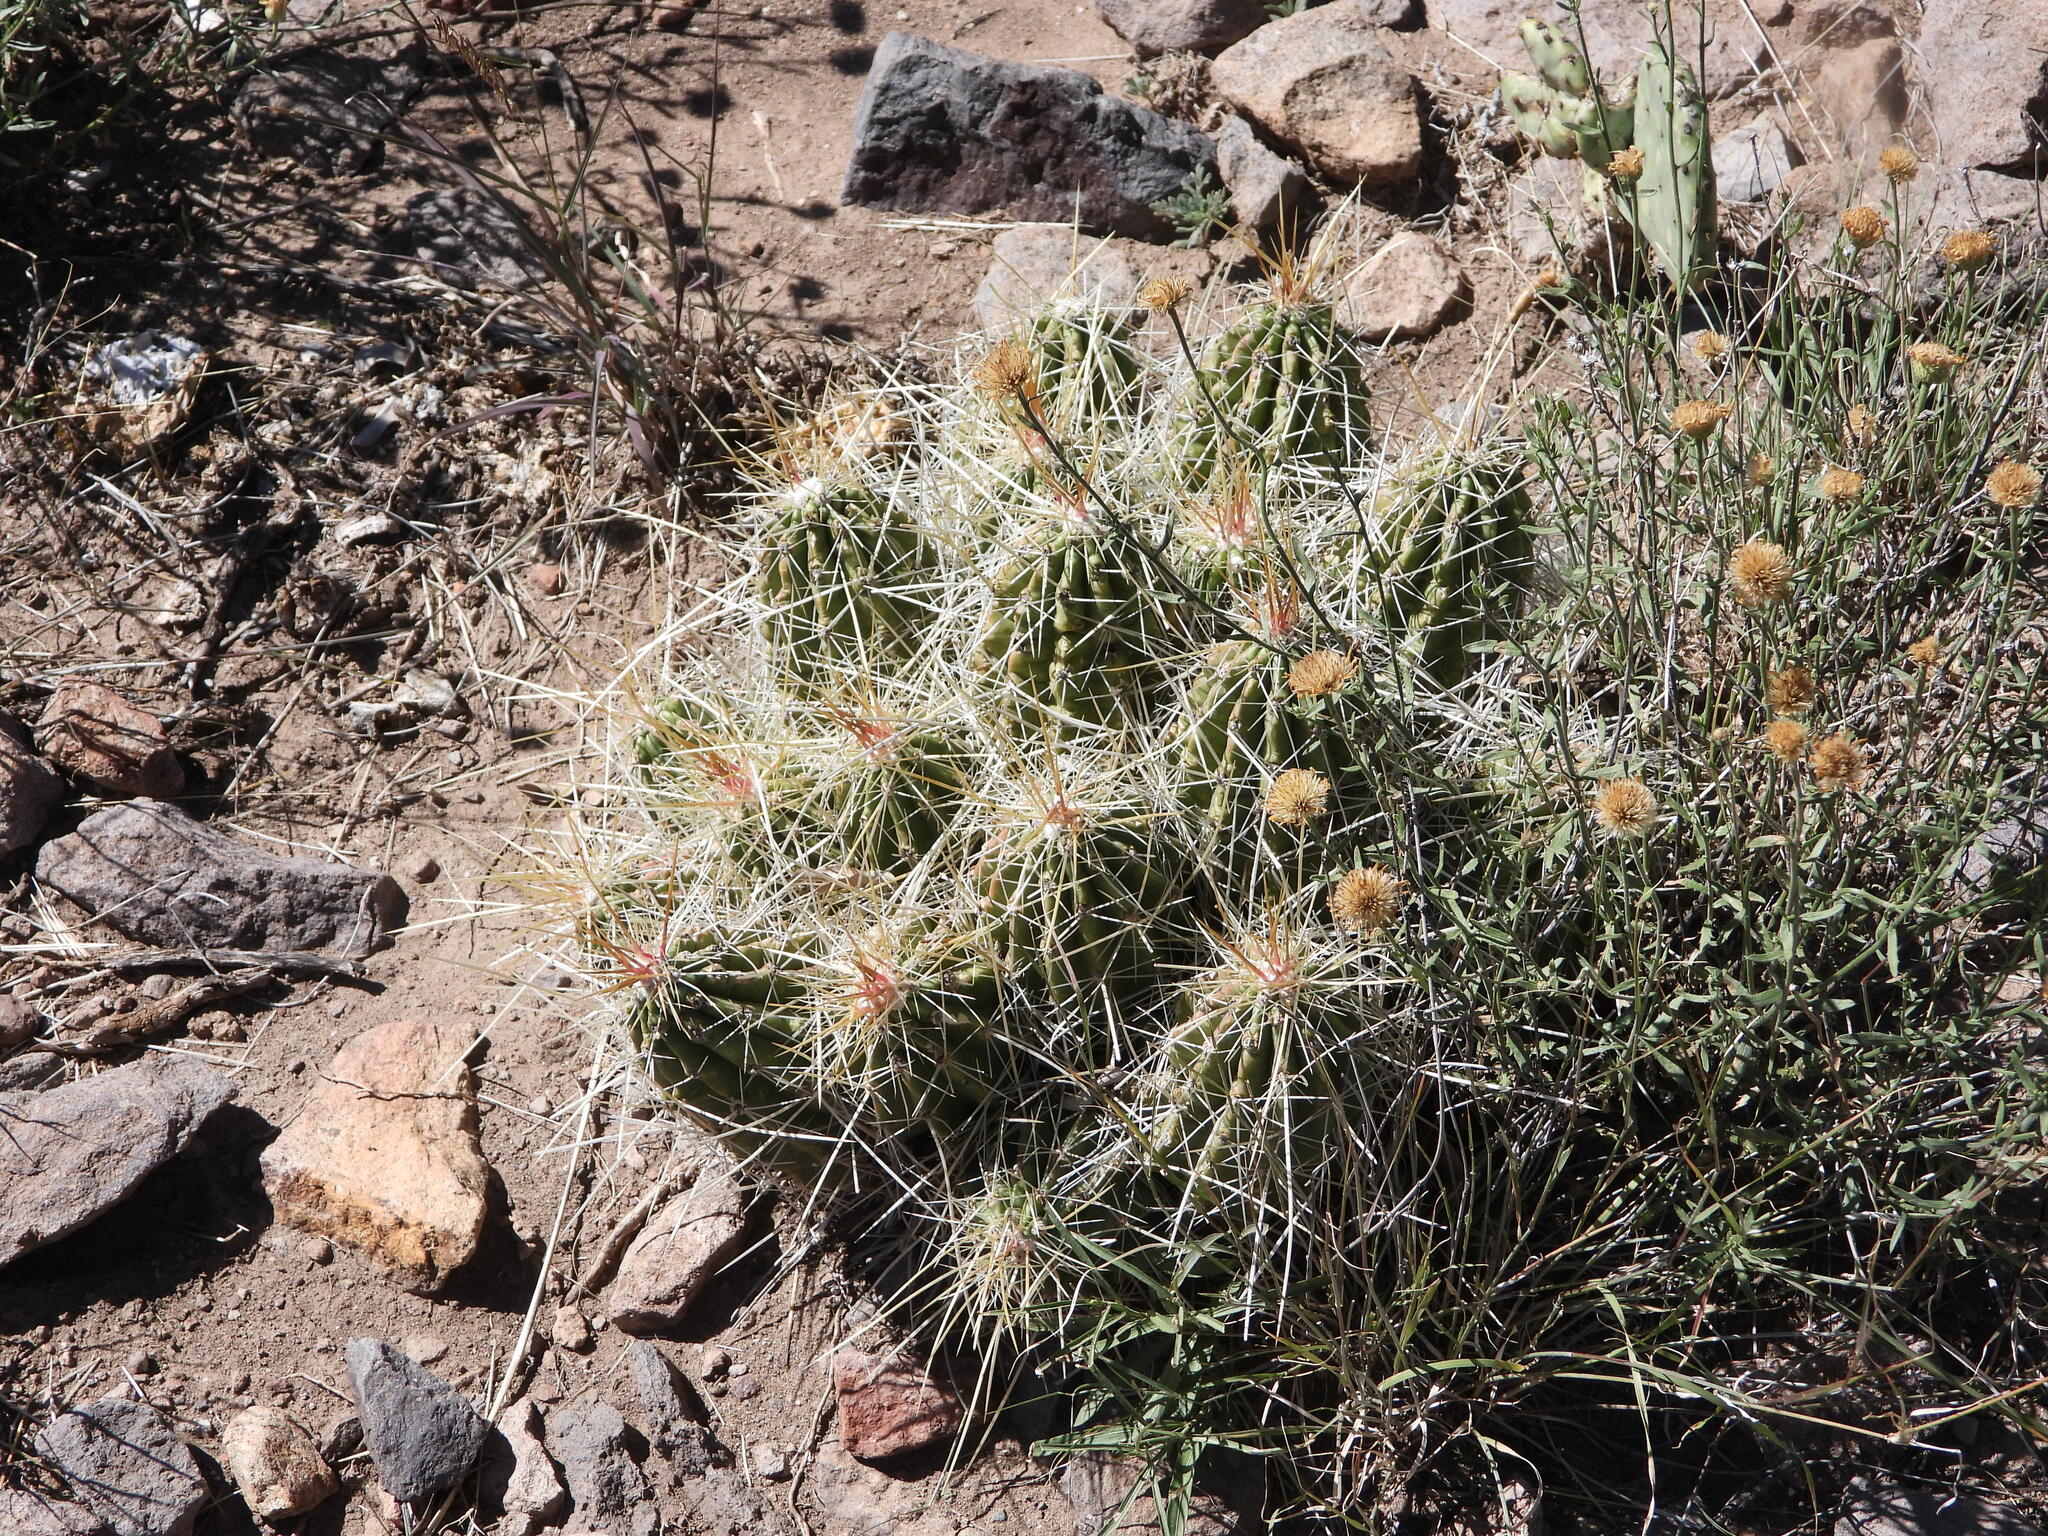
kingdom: Plantae
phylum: Tracheophyta
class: Magnoliopsida
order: Caryophyllales
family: Cactaceae
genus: Echinocereus
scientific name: Echinocereus stramineus
